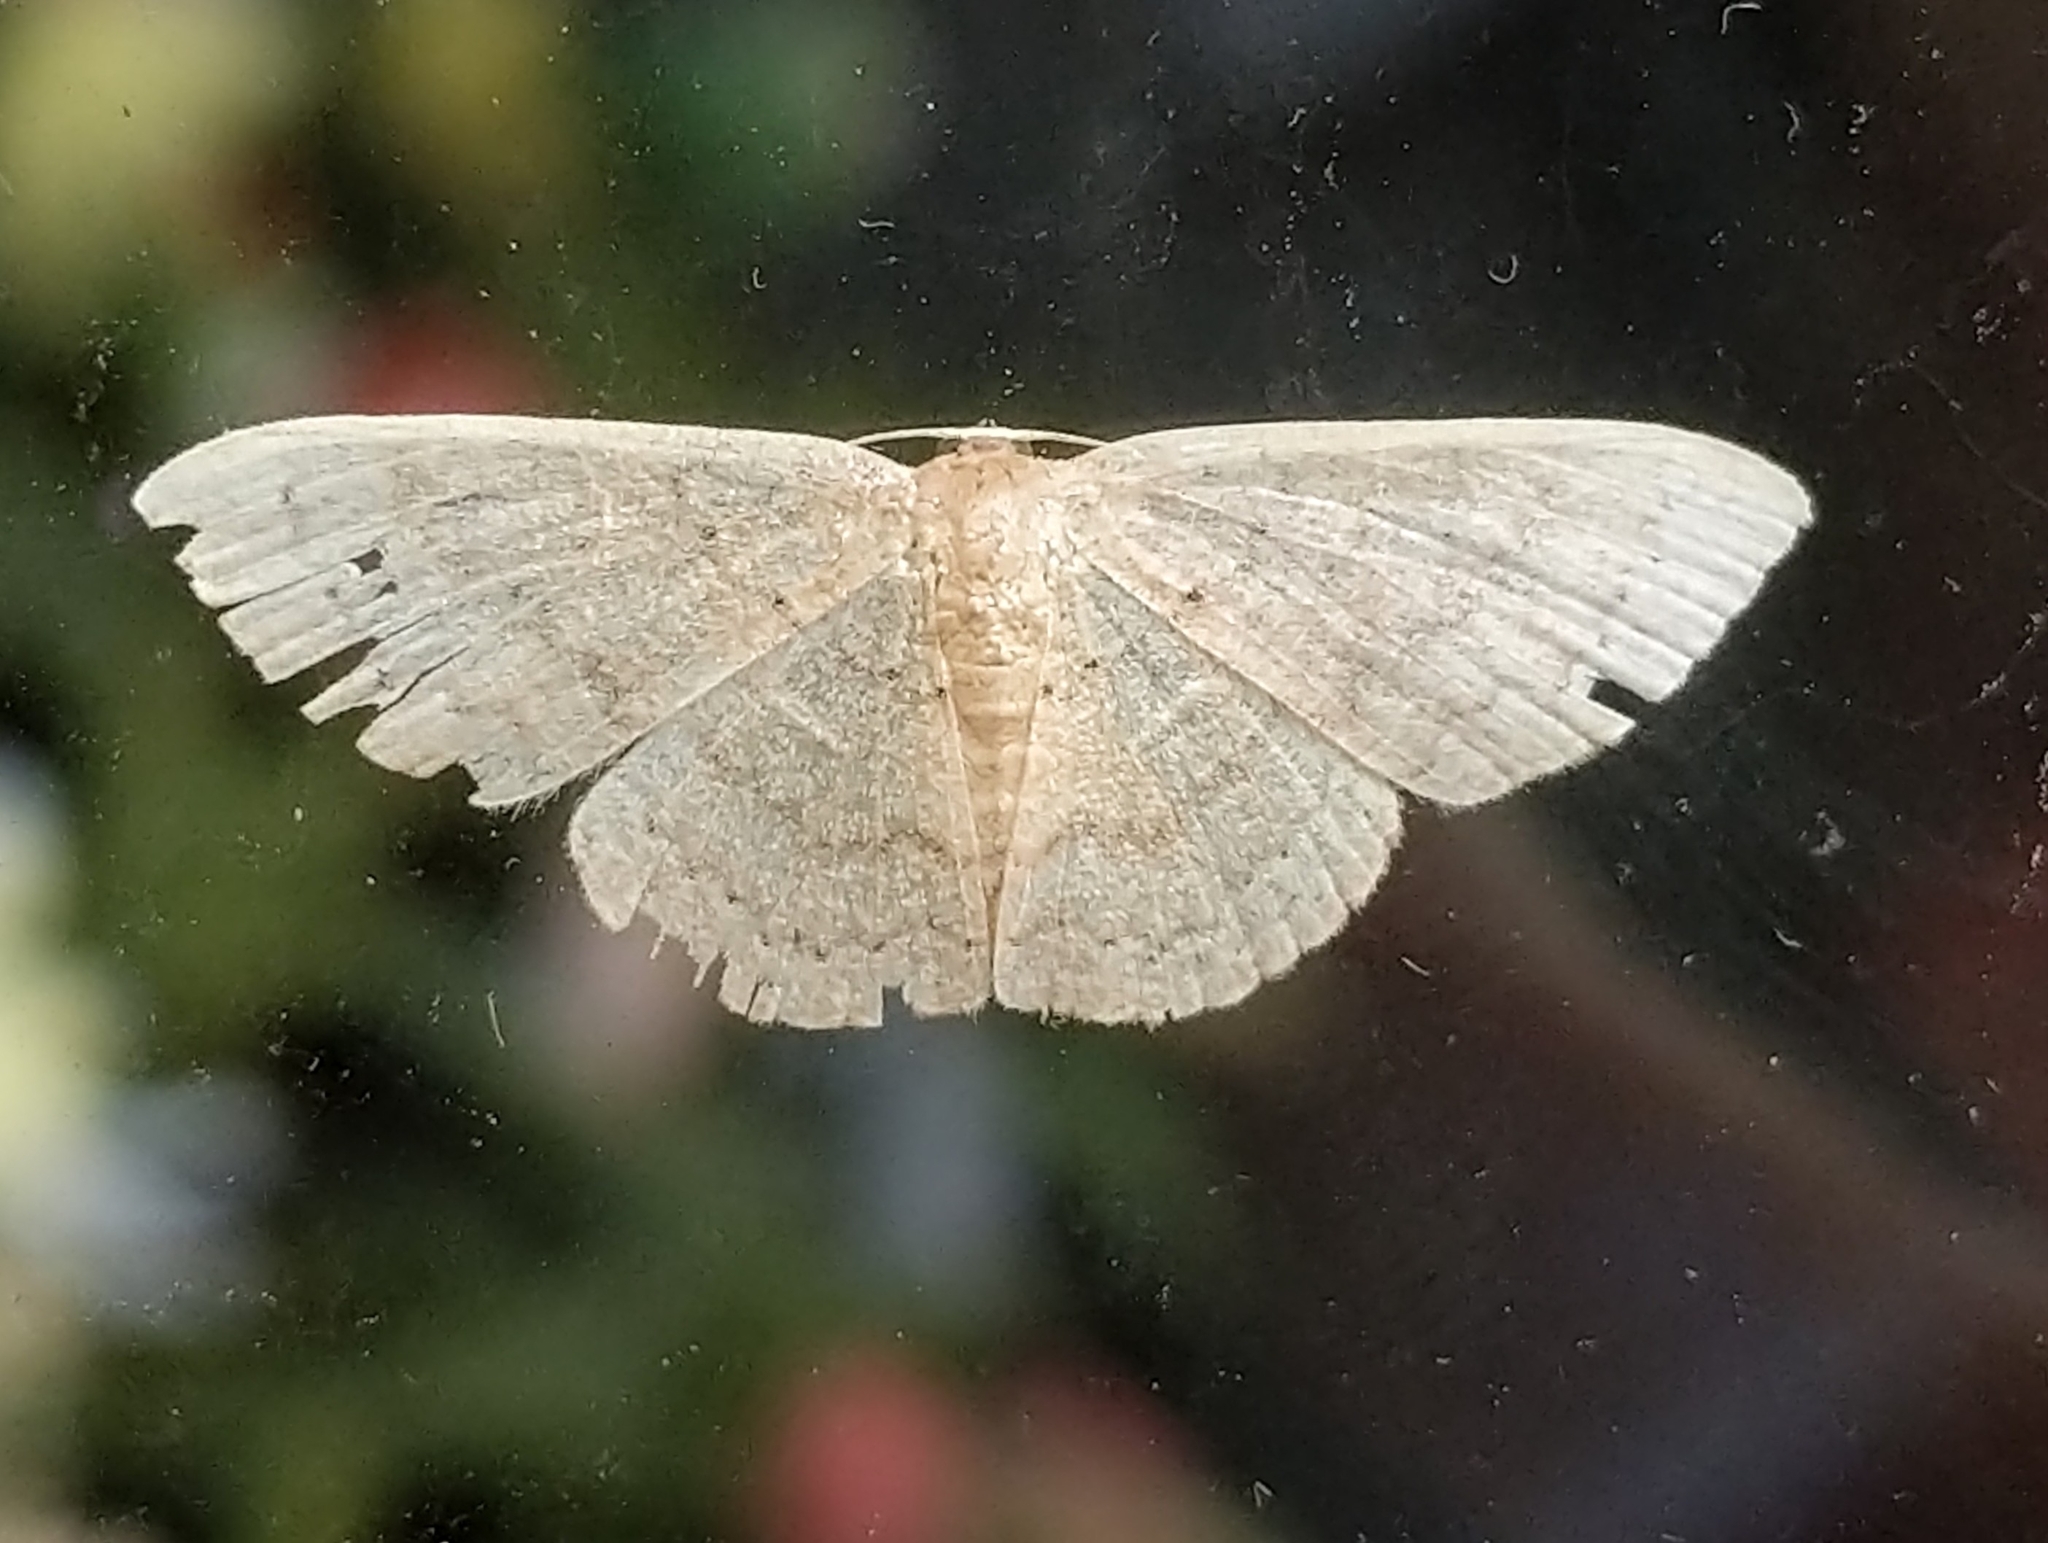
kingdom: Animalia
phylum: Arthropoda
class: Insecta
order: Lepidoptera
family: Geometridae
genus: Pleuroprucha
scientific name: Pleuroprucha insulsaria
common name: Common tan wave
